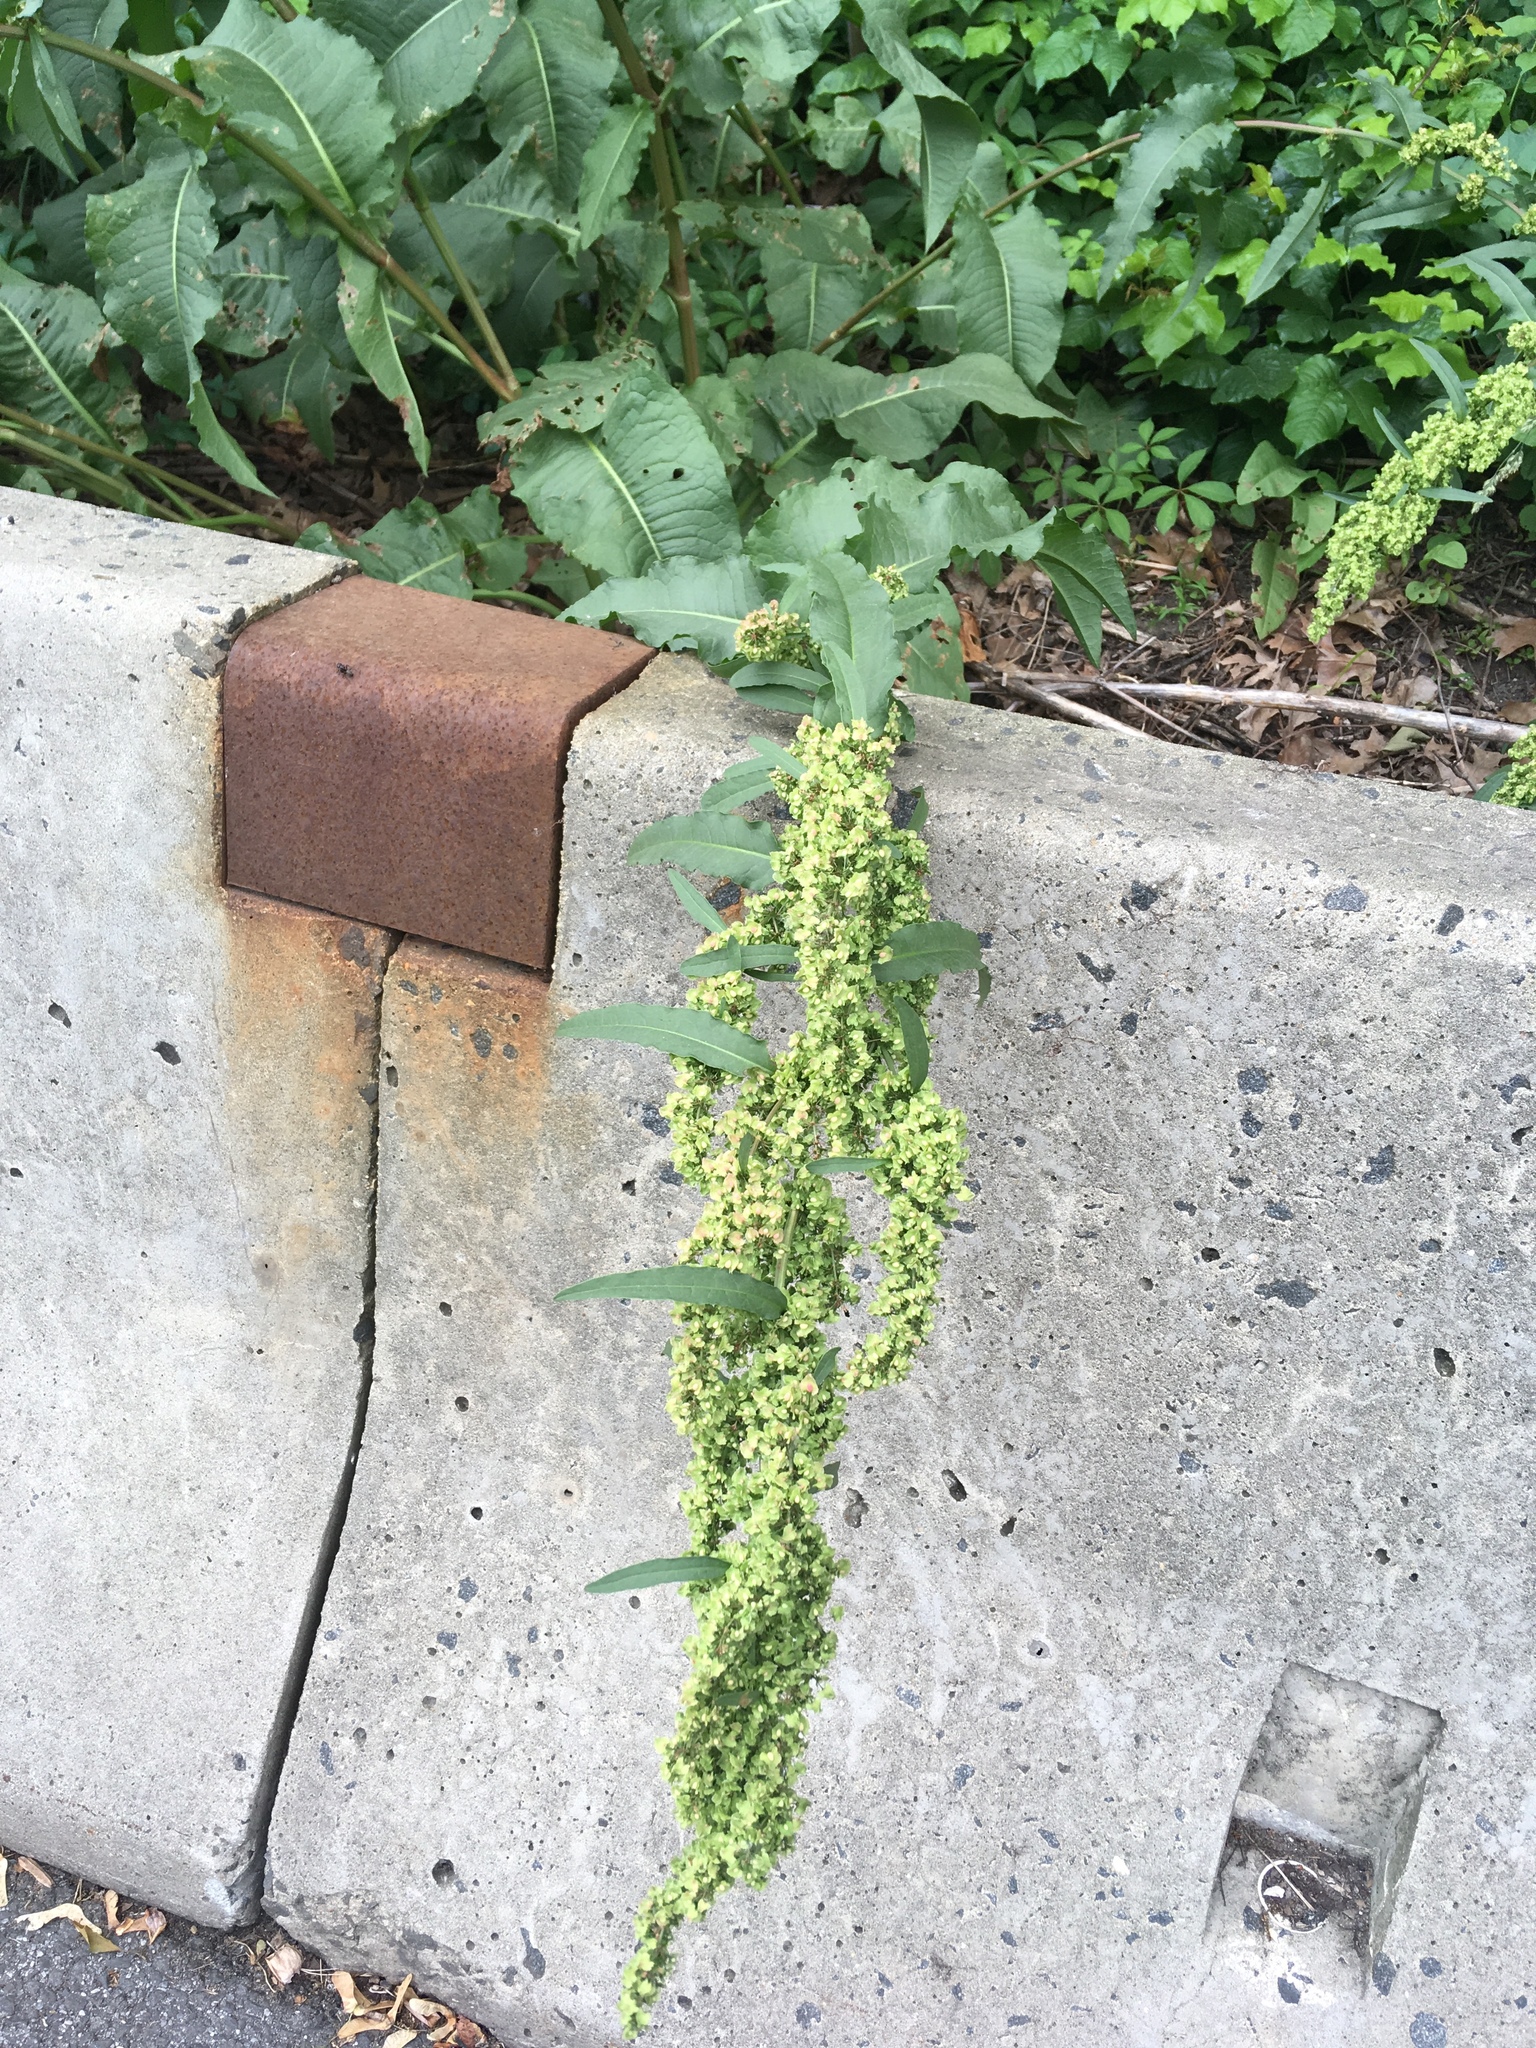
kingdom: Plantae
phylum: Tracheophyta
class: Magnoliopsida
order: Caryophyllales
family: Polygonaceae
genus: Rumex
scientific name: Rumex cristatus
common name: Greek dock
